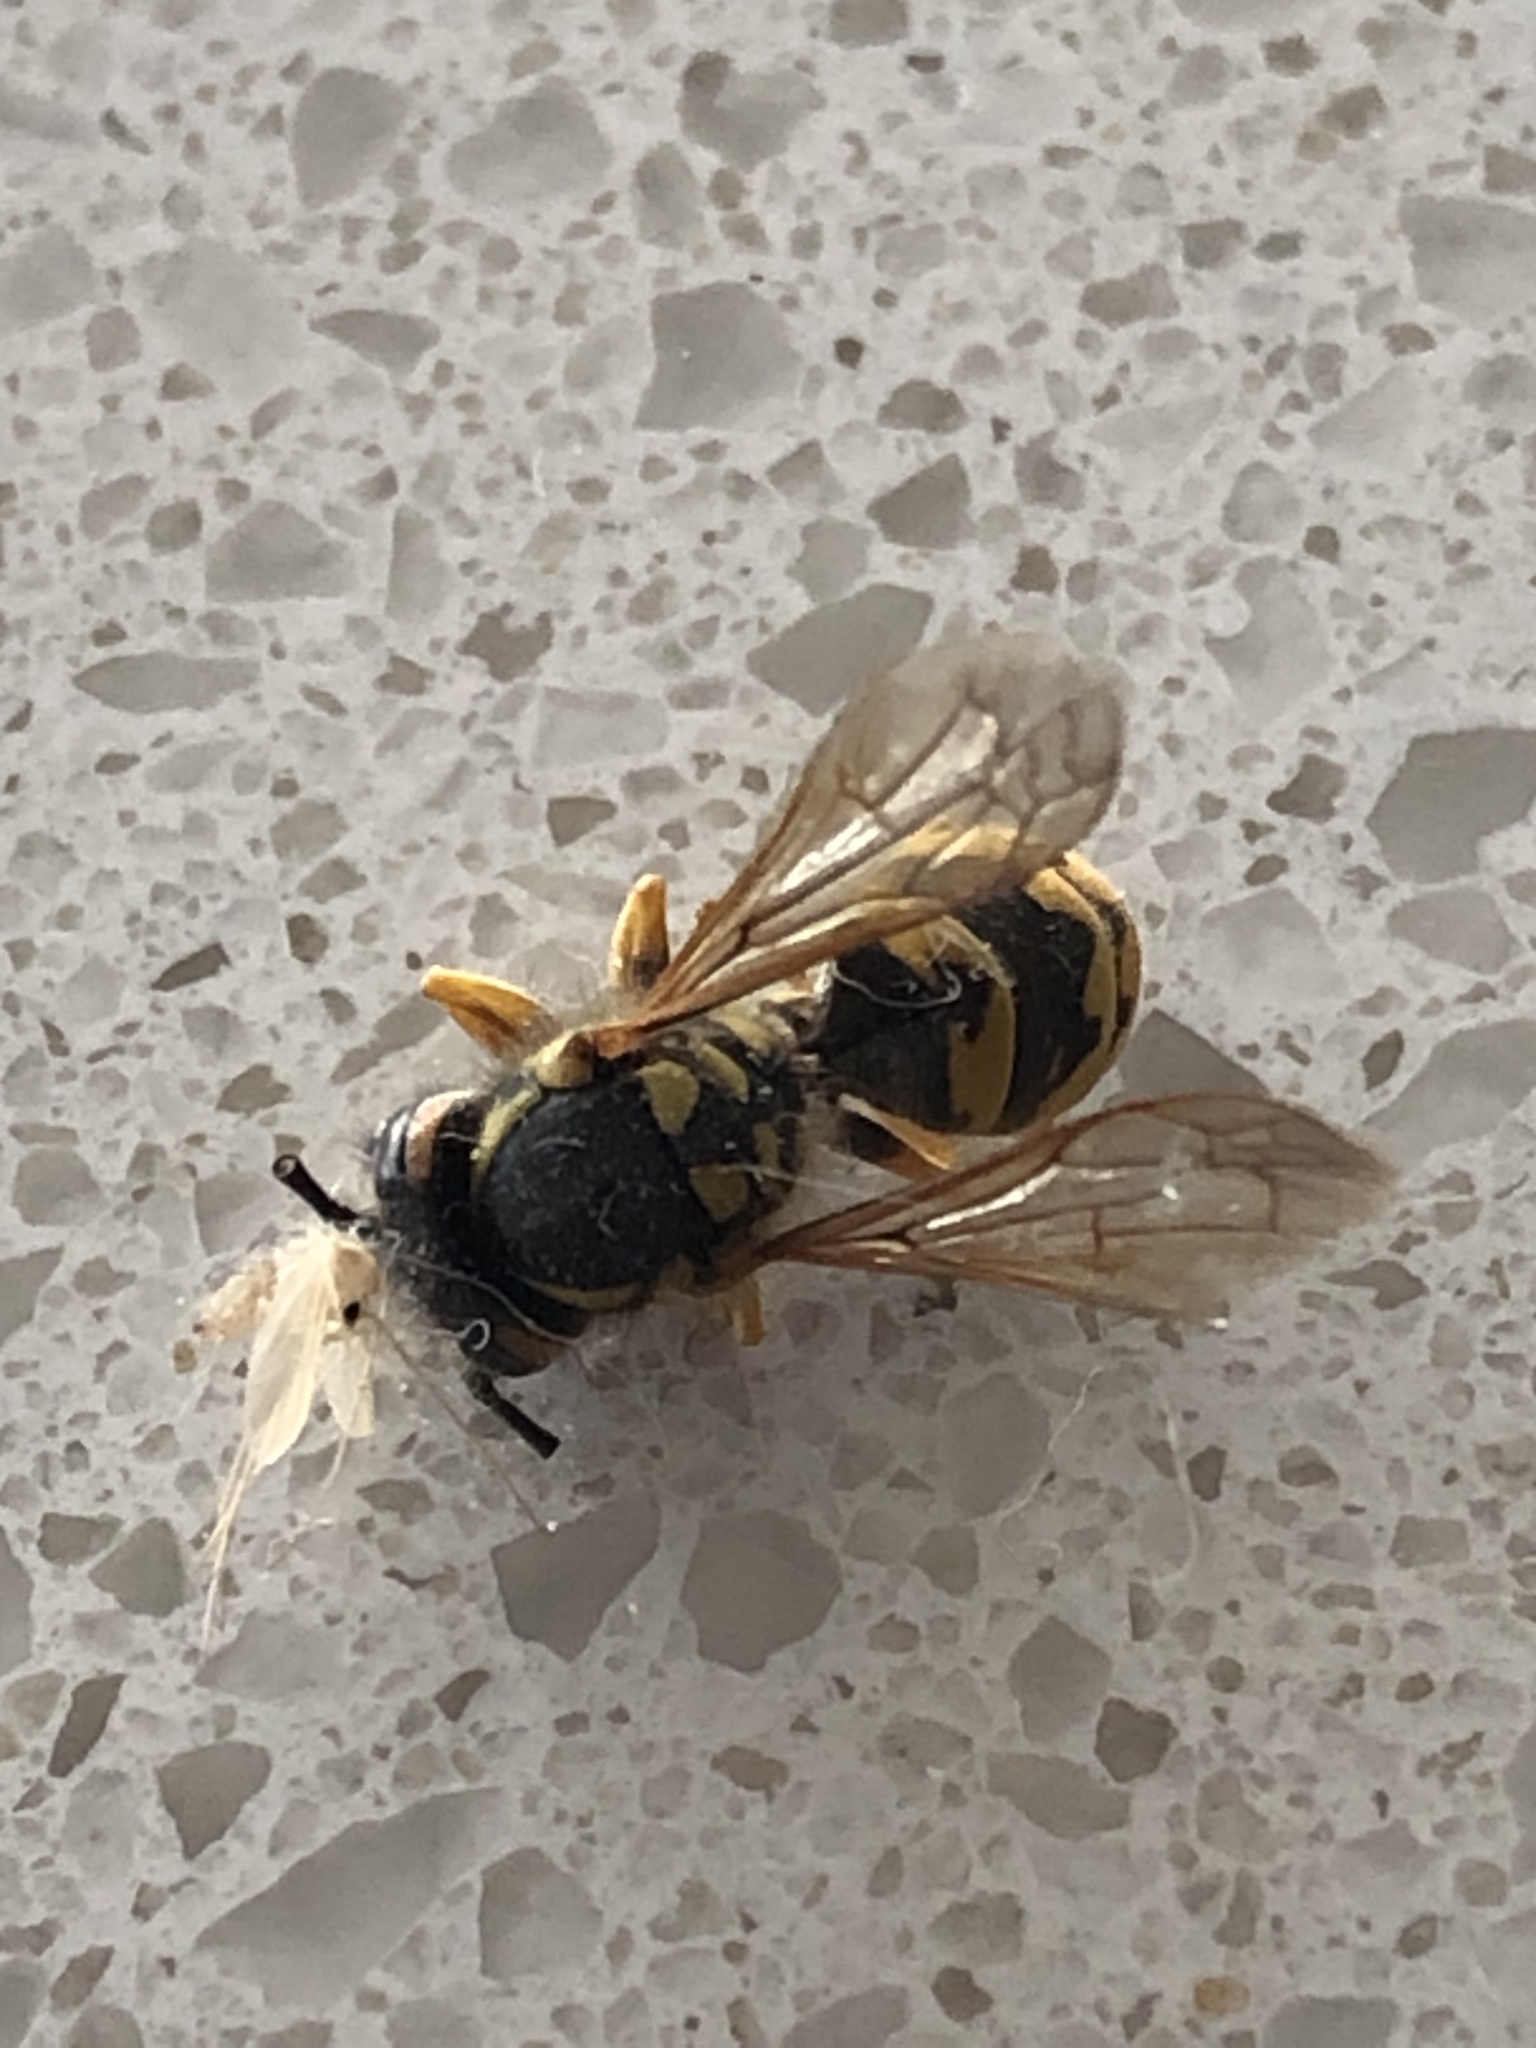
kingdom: Animalia
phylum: Arthropoda
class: Insecta
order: Hymenoptera
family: Vespidae
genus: Vespula
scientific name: Vespula germanica
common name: German wasp
